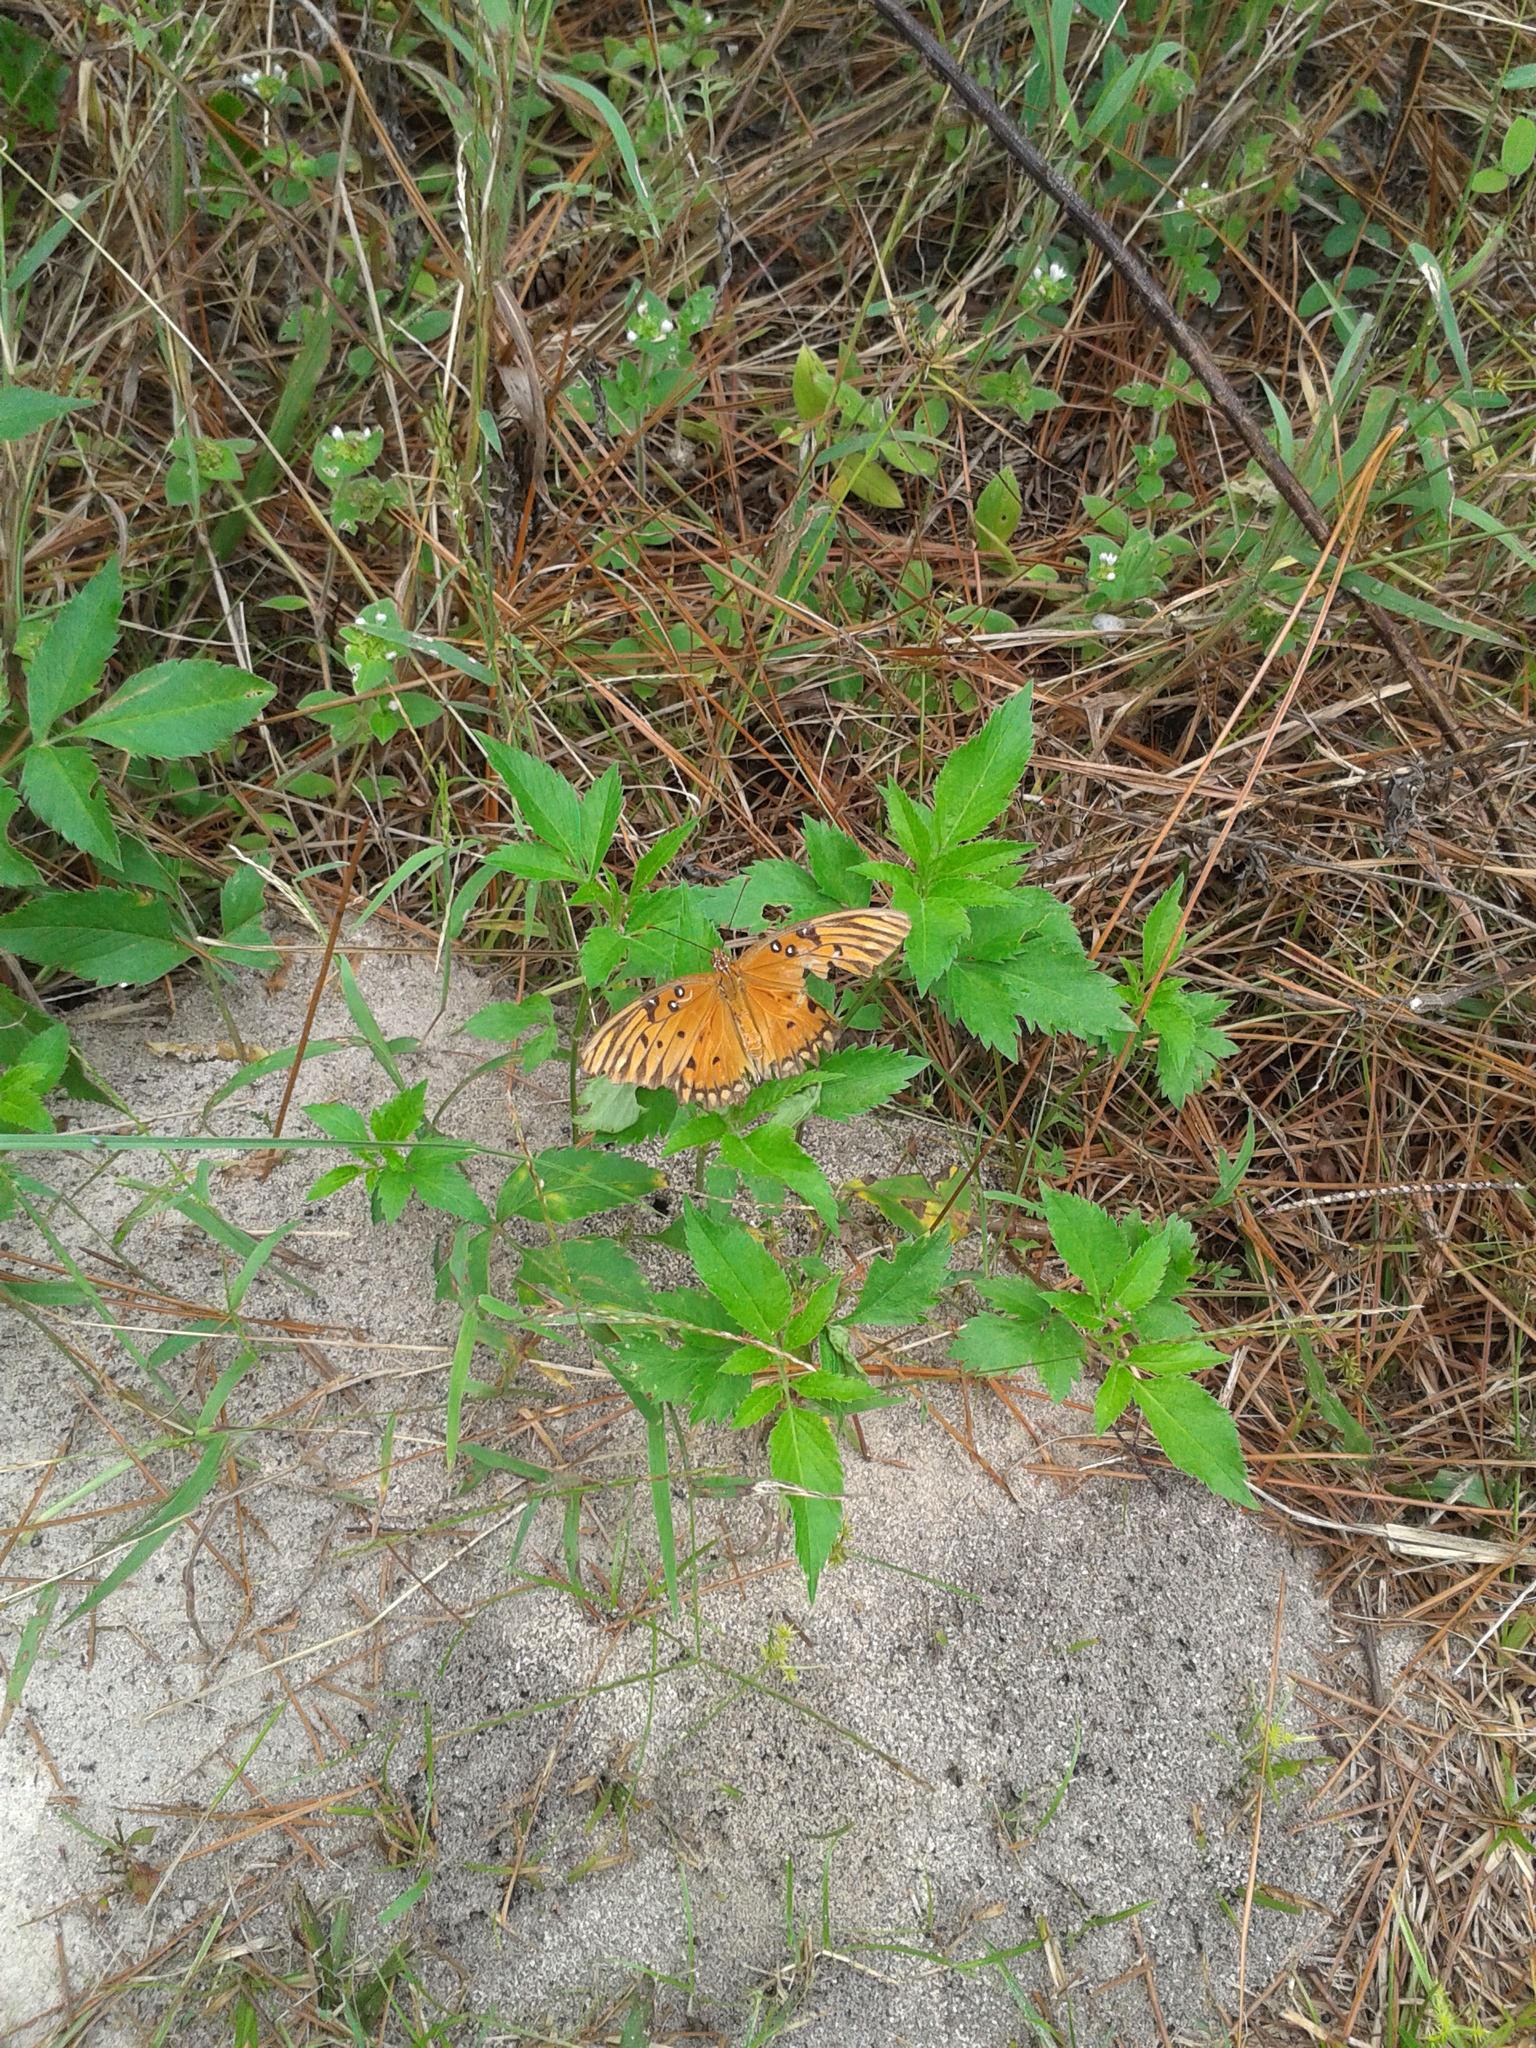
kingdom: Animalia
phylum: Arthropoda
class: Insecta
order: Lepidoptera
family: Nymphalidae
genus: Dione
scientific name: Dione vanillae
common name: Gulf fritillary
